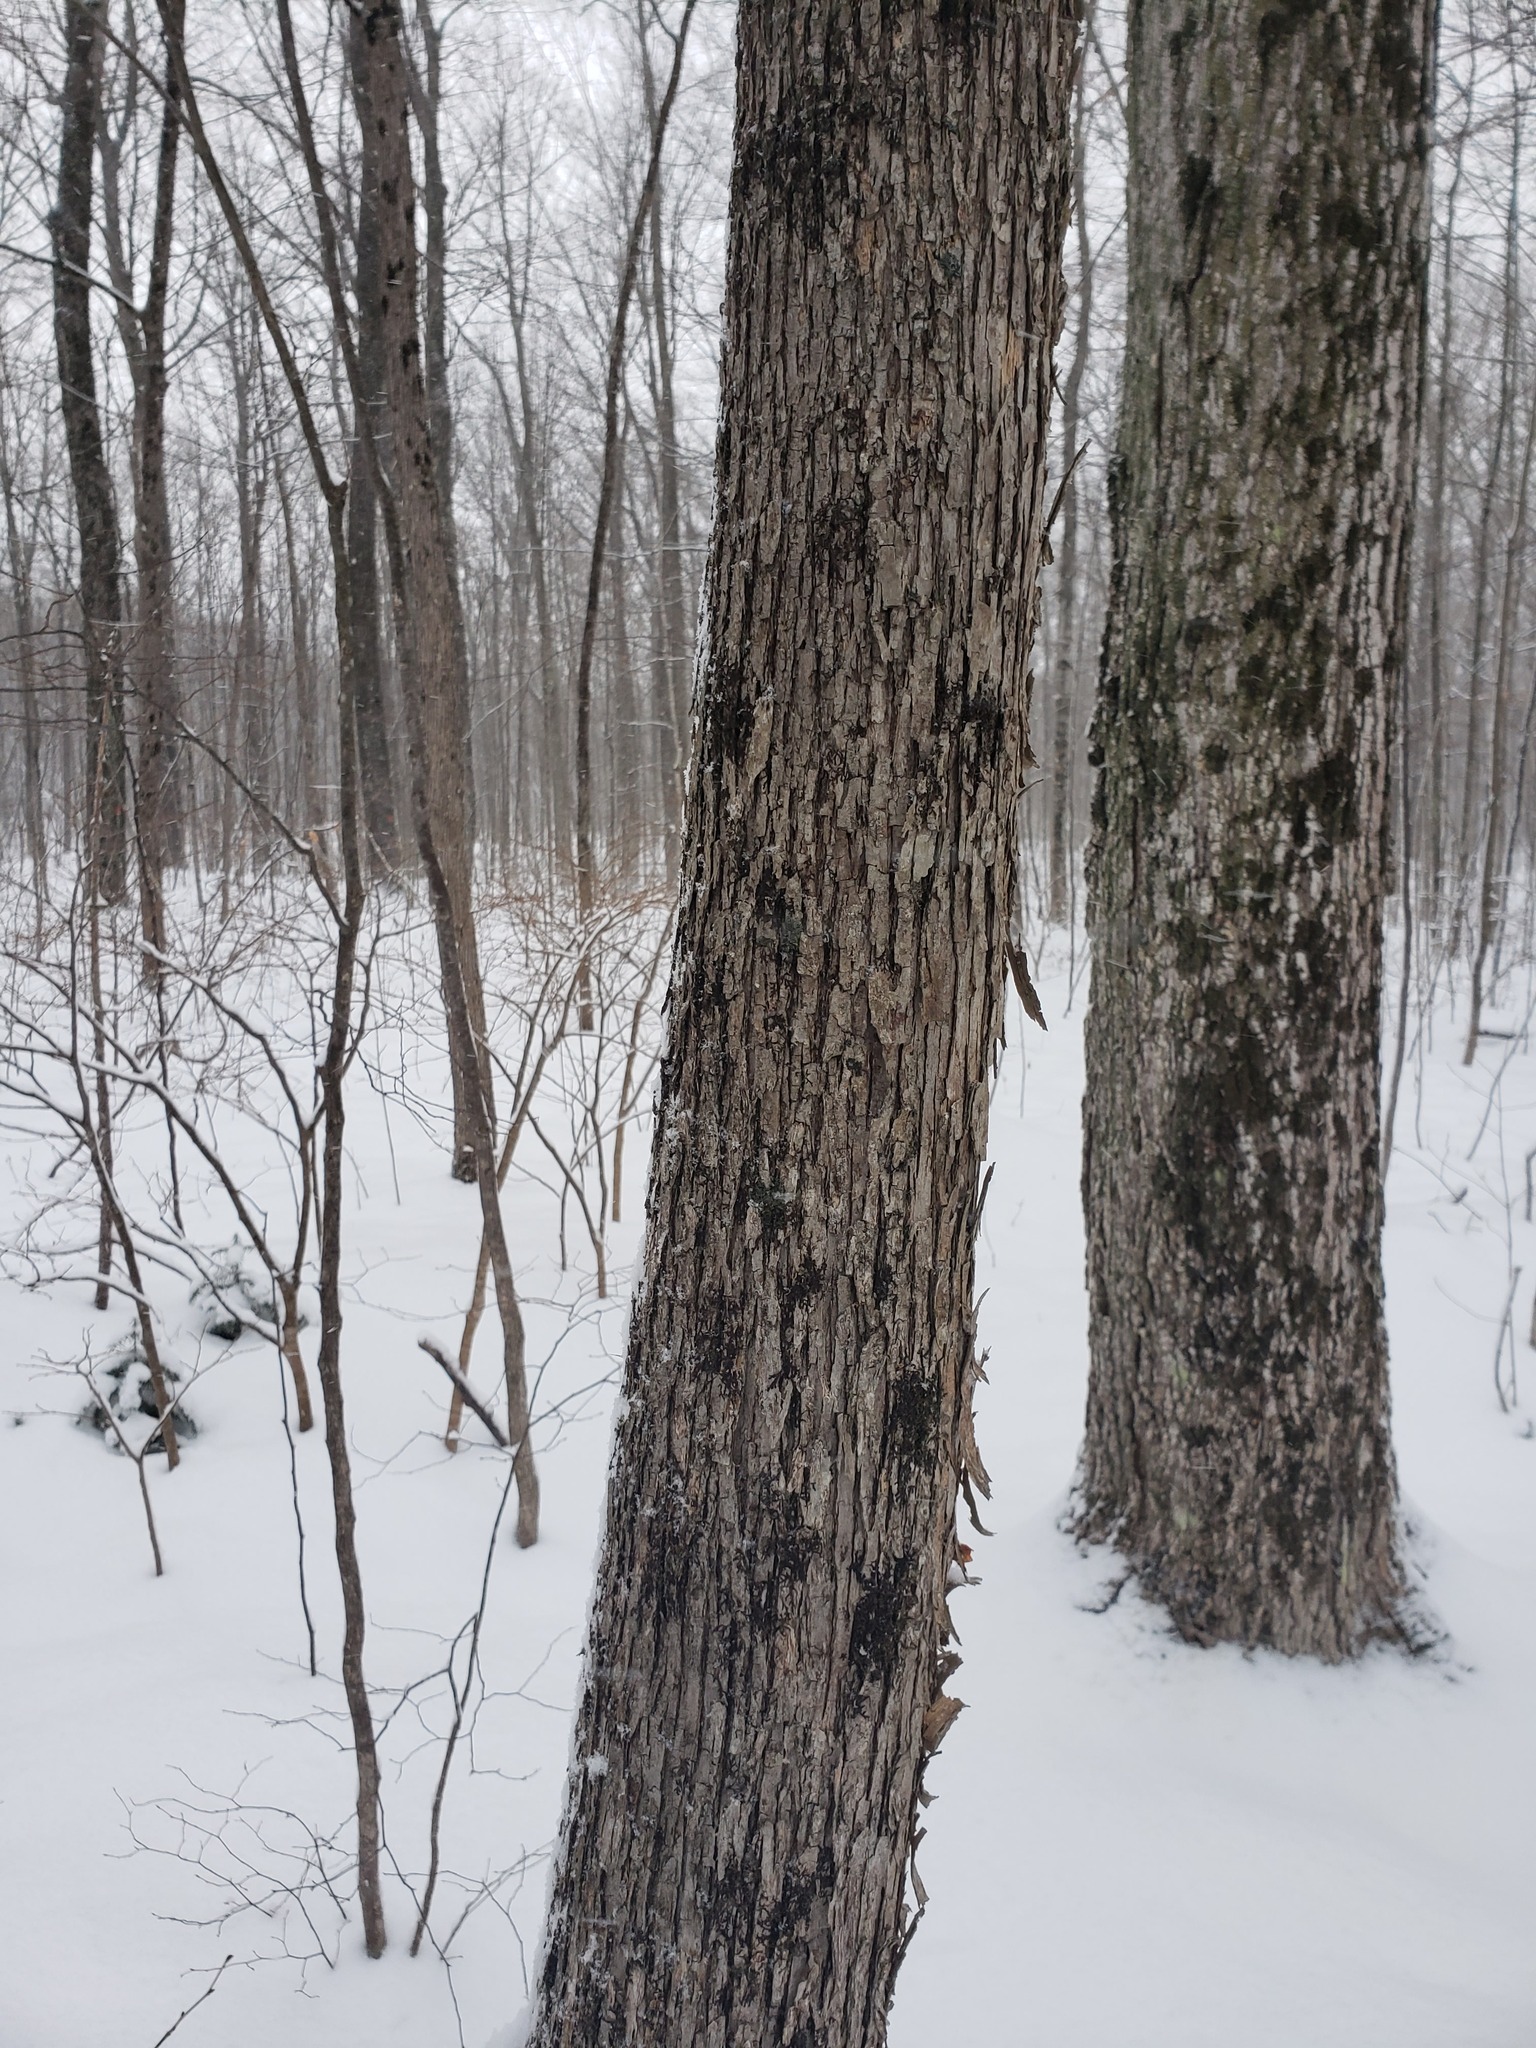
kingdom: Plantae
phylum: Tracheophyta
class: Magnoliopsida
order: Fagales
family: Betulaceae
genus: Ostrya
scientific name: Ostrya virginiana
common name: Ironwood
